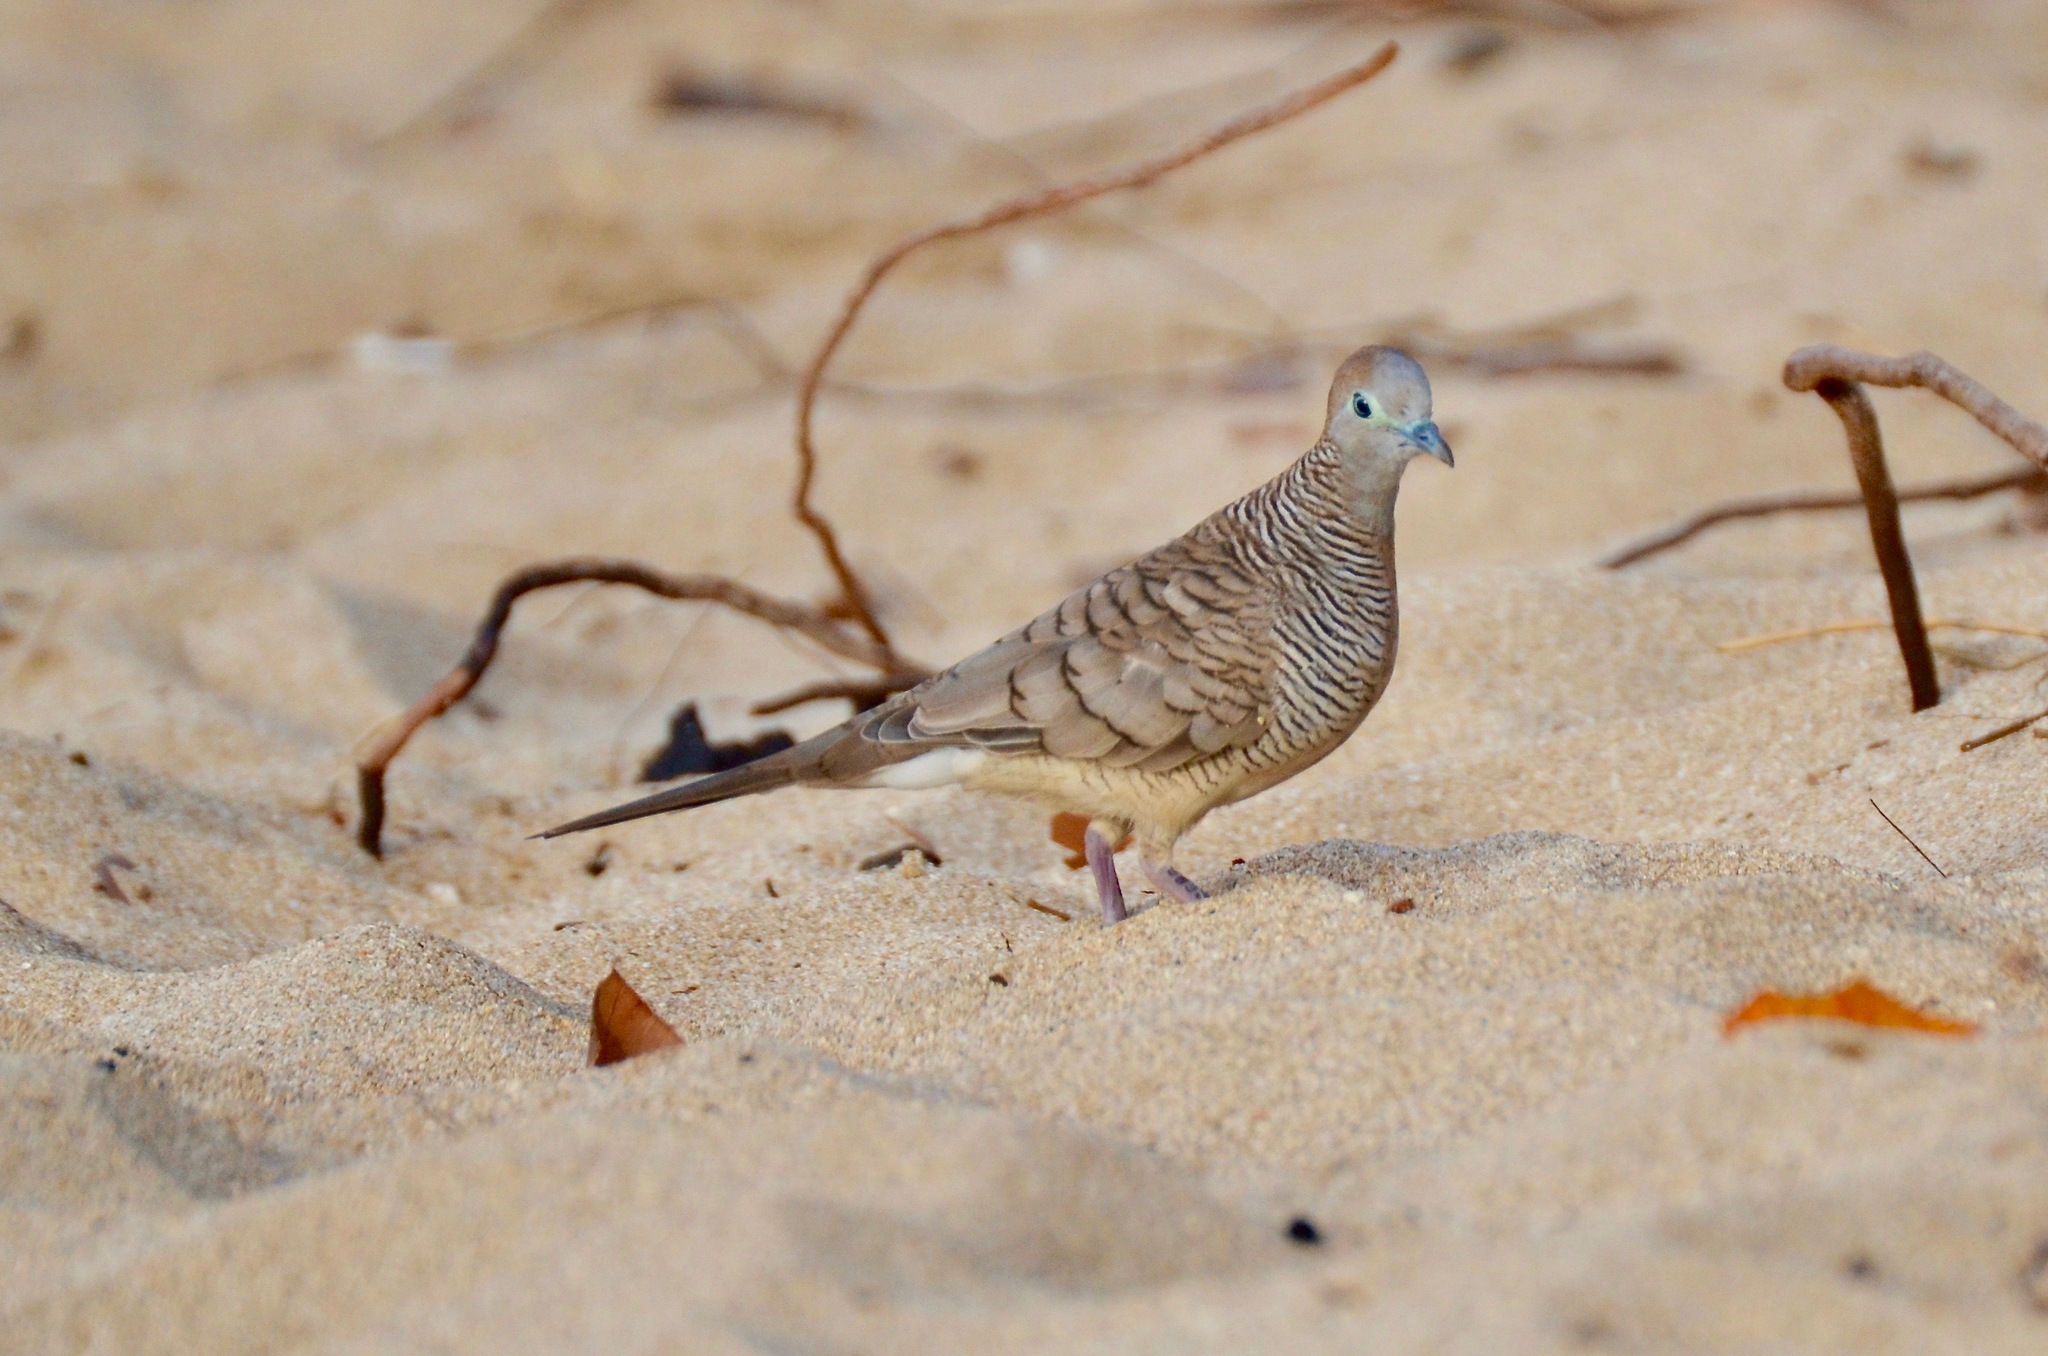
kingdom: Animalia
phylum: Chordata
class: Aves
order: Columbiformes
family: Columbidae
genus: Geopelia
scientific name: Geopelia striata
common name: Zebra dove
